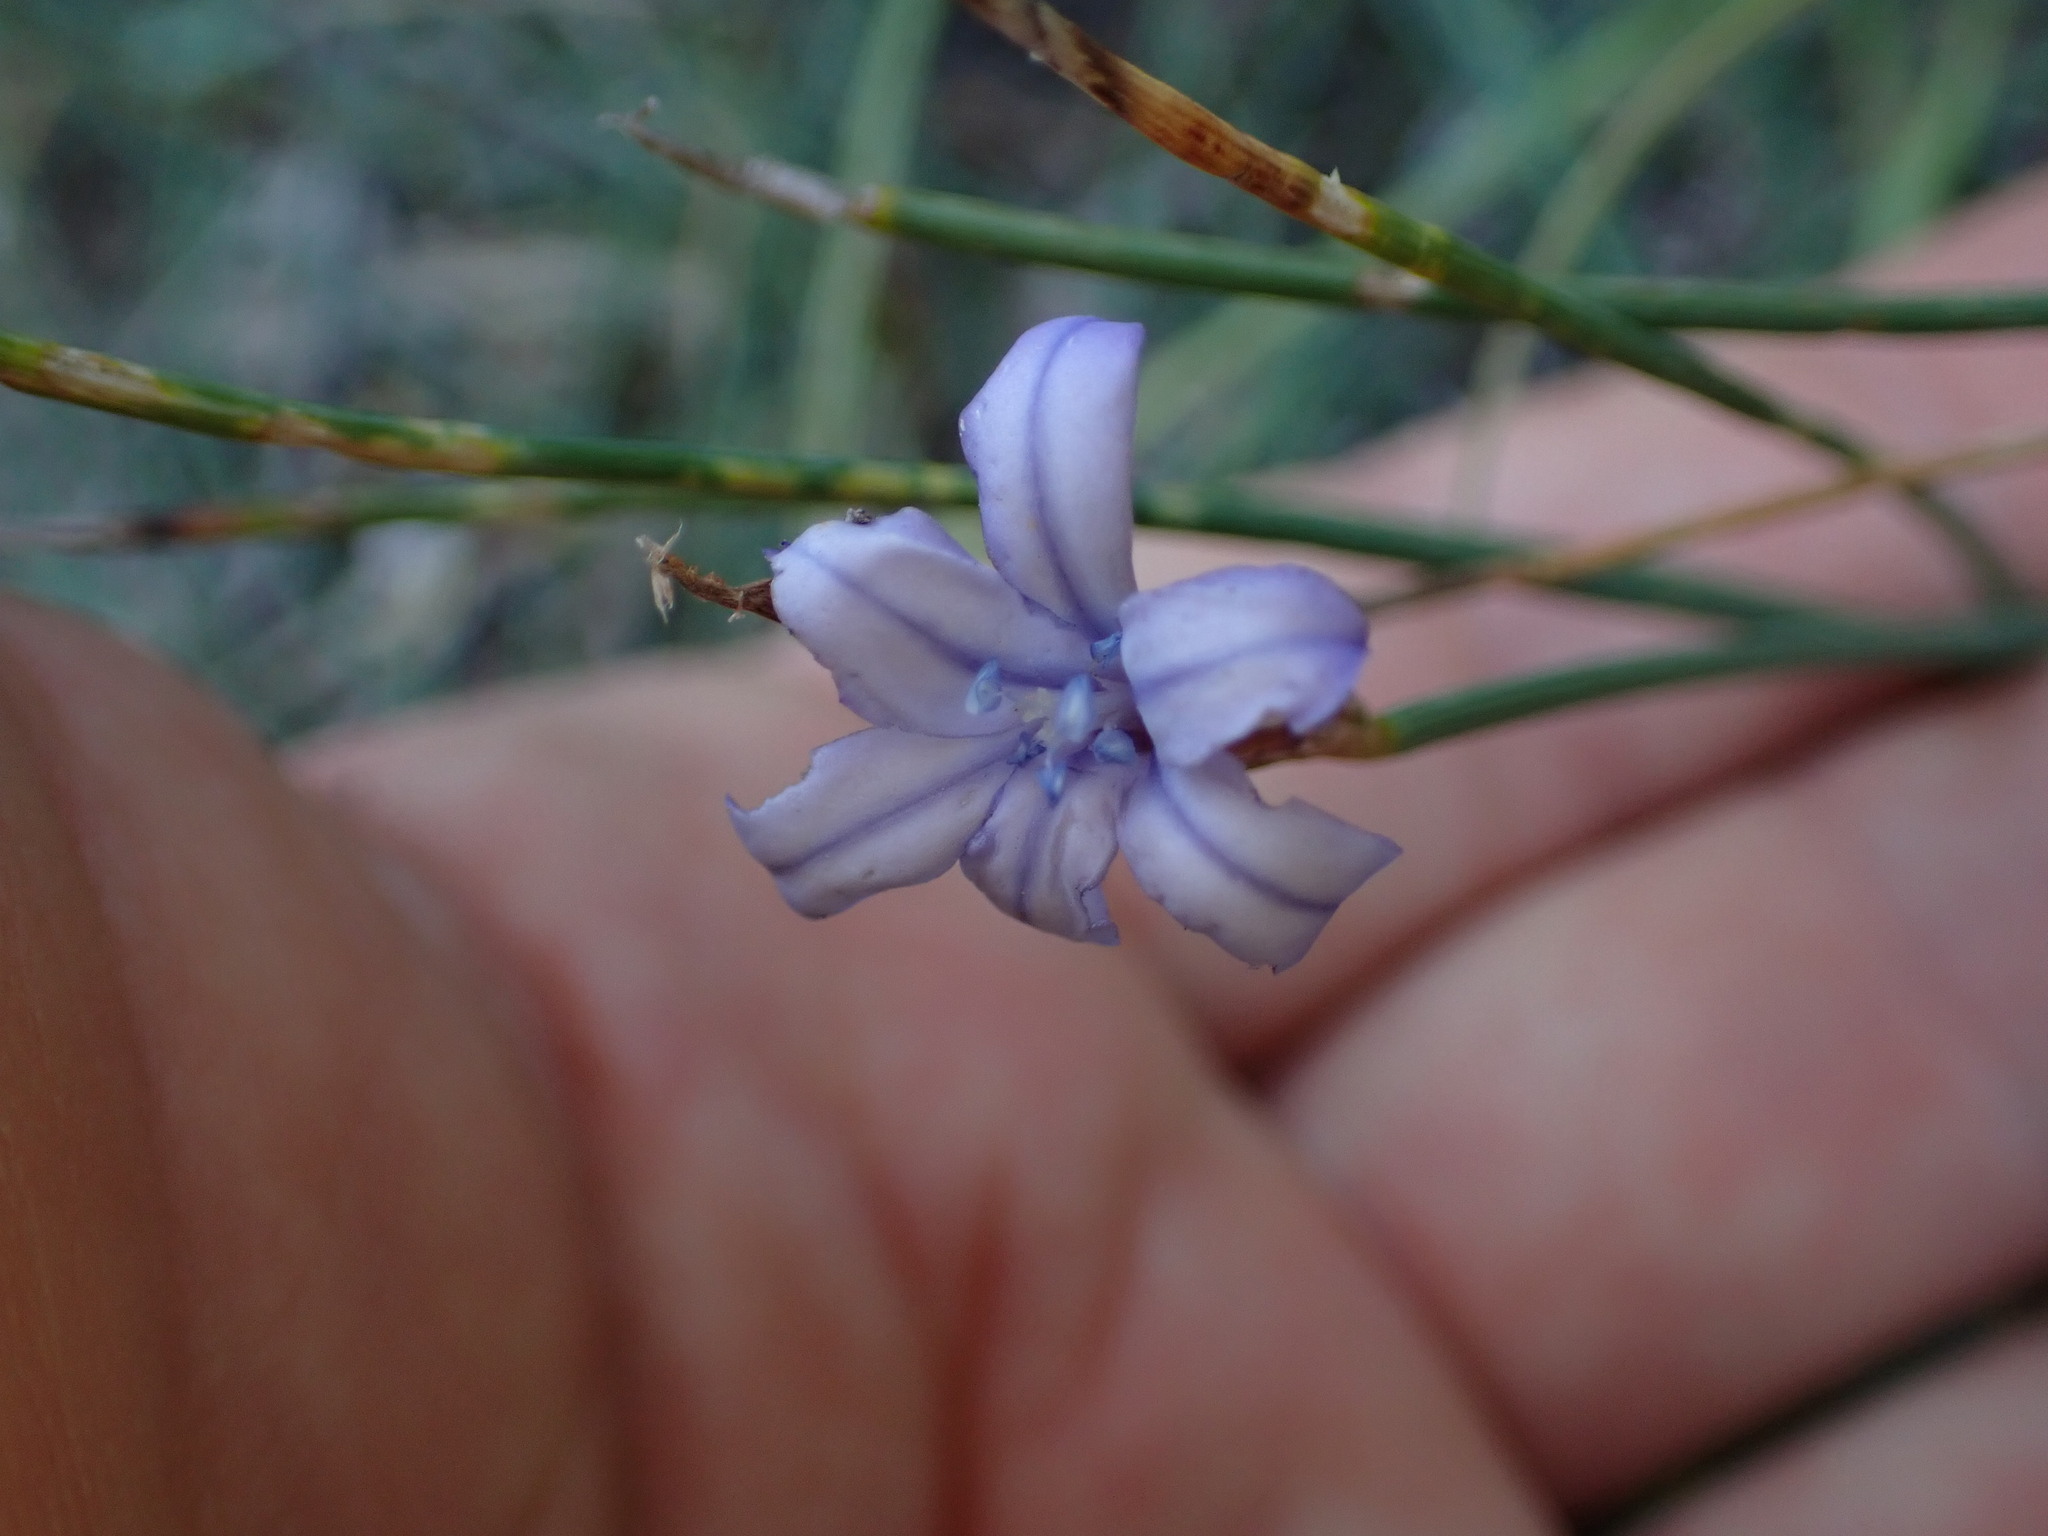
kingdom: Plantae
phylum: Tracheophyta
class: Liliopsida
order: Asparagales
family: Asparagaceae
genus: Aphyllanthes
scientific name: Aphyllanthes monspeliensis
